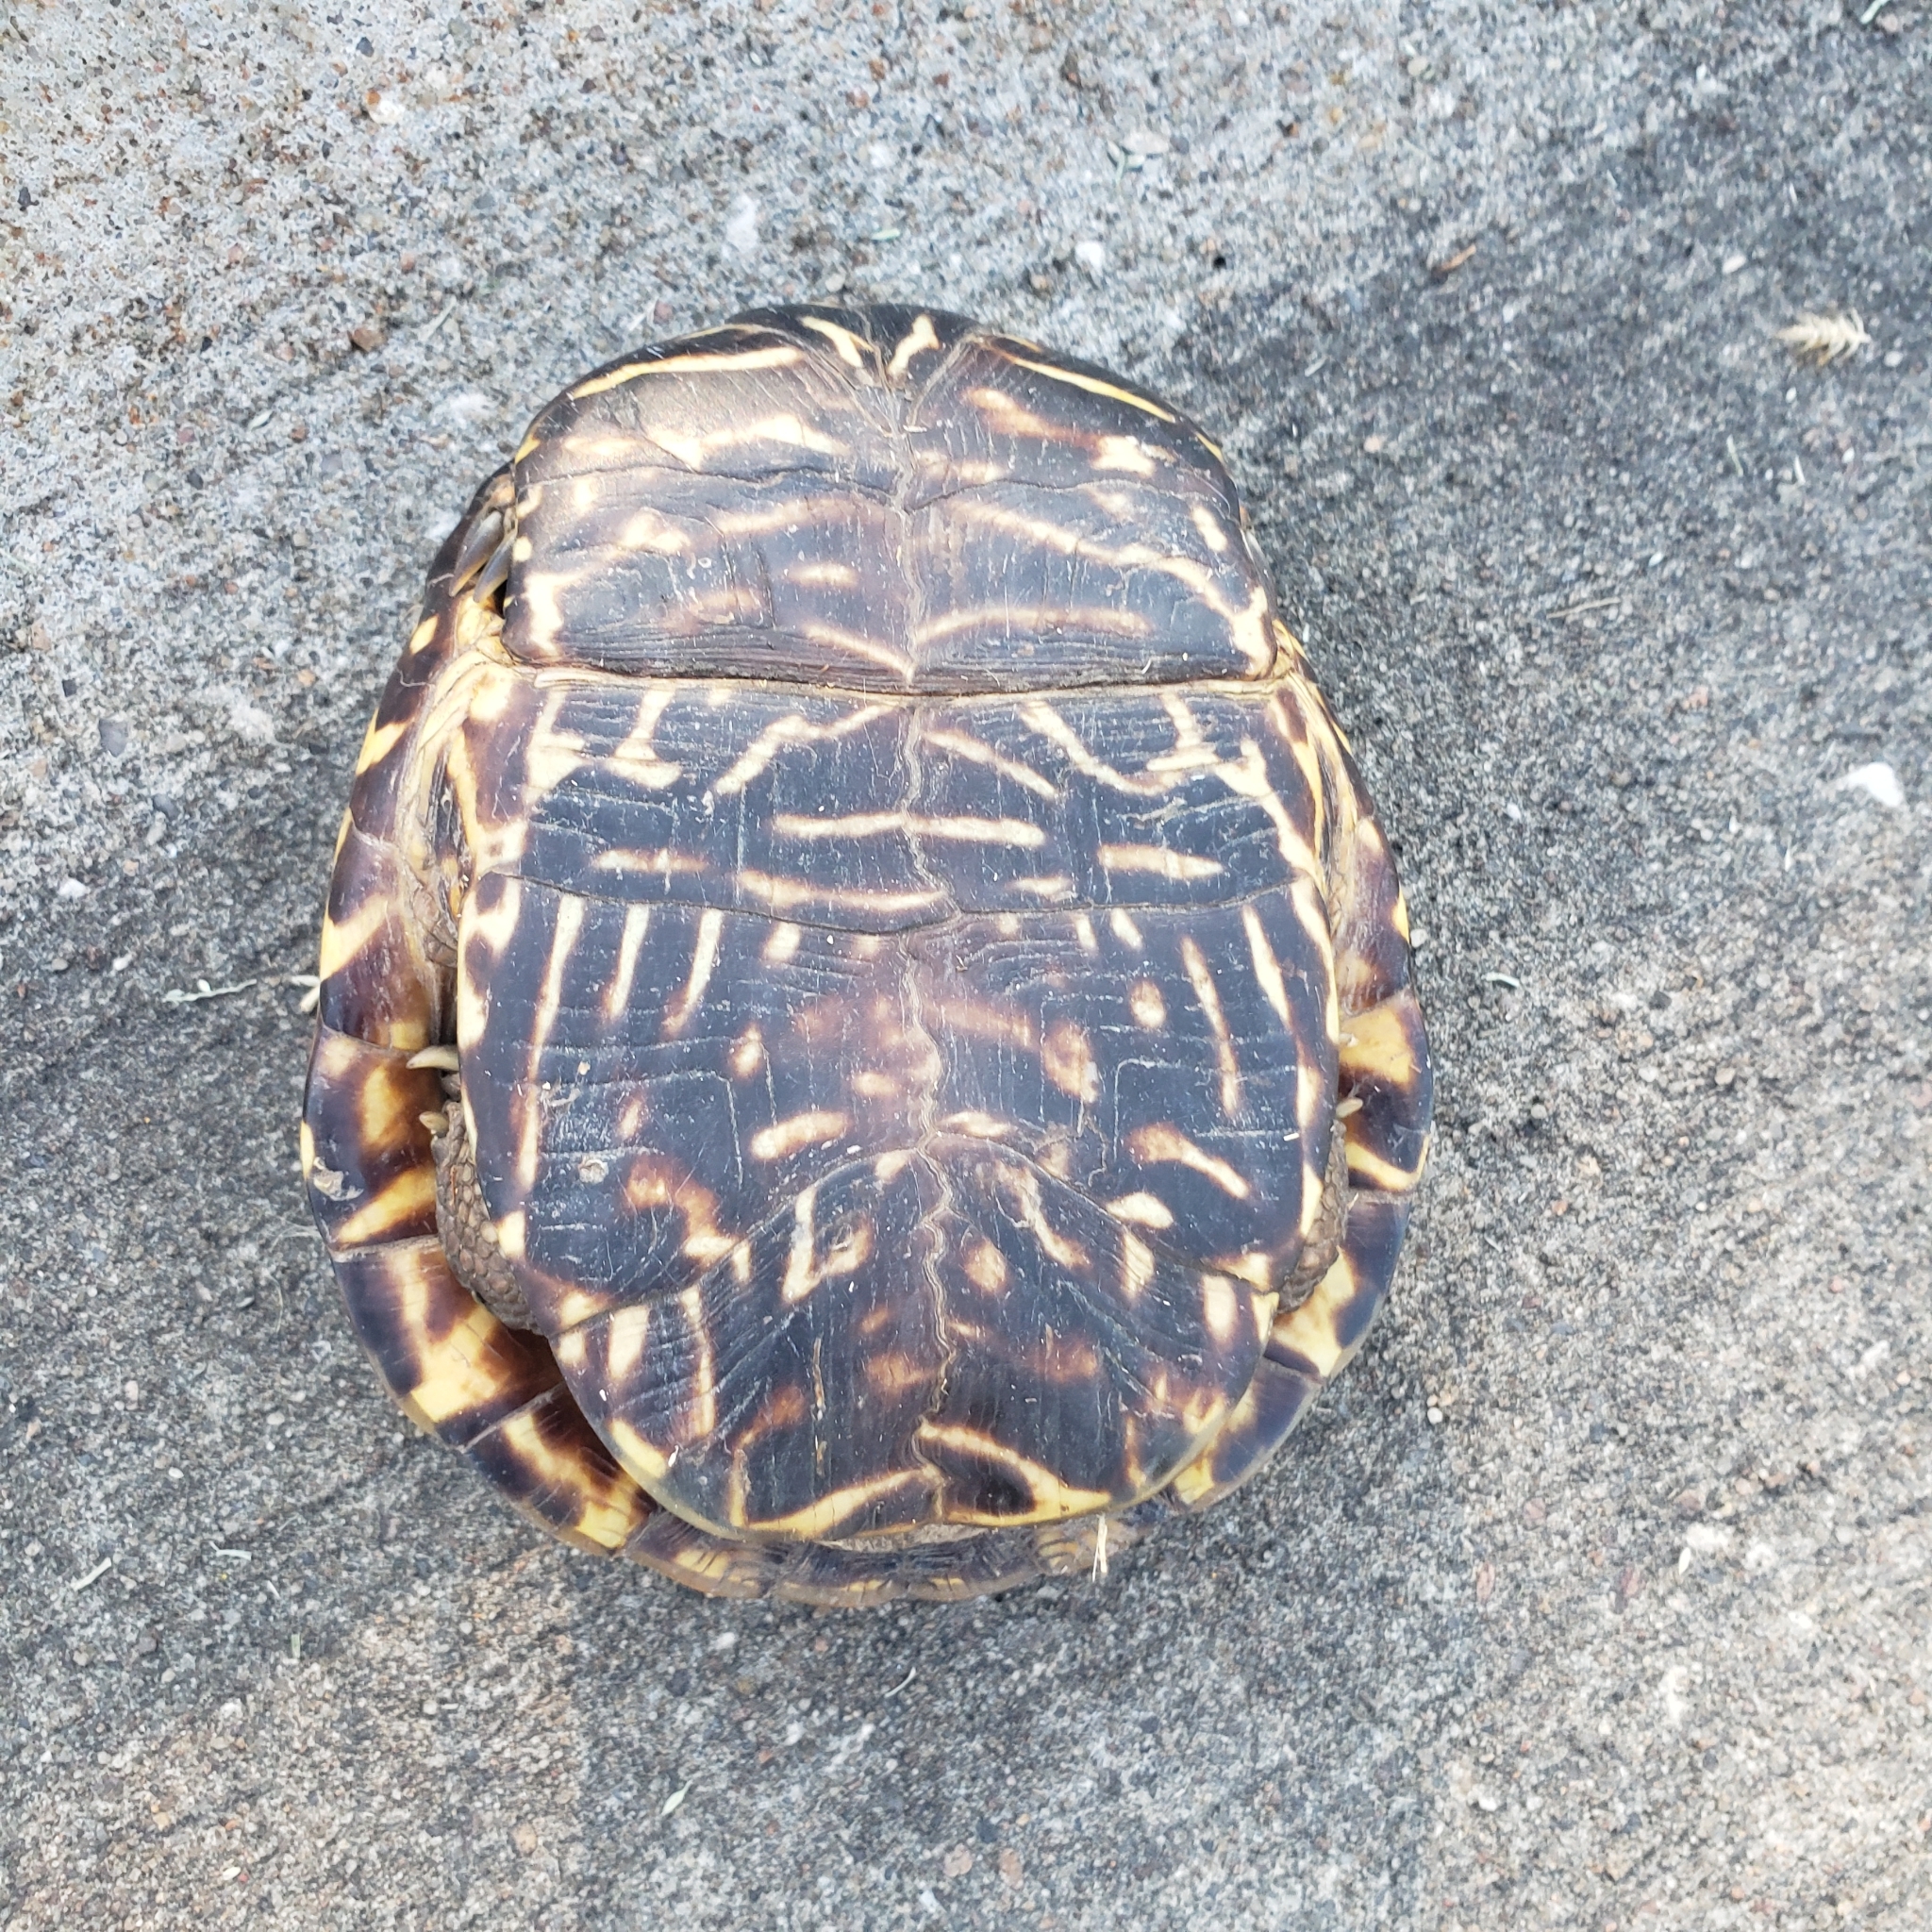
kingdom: Animalia
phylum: Chordata
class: Testudines
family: Emydidae
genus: Terrapene
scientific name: Terrapene ornata
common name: Western box turtle
